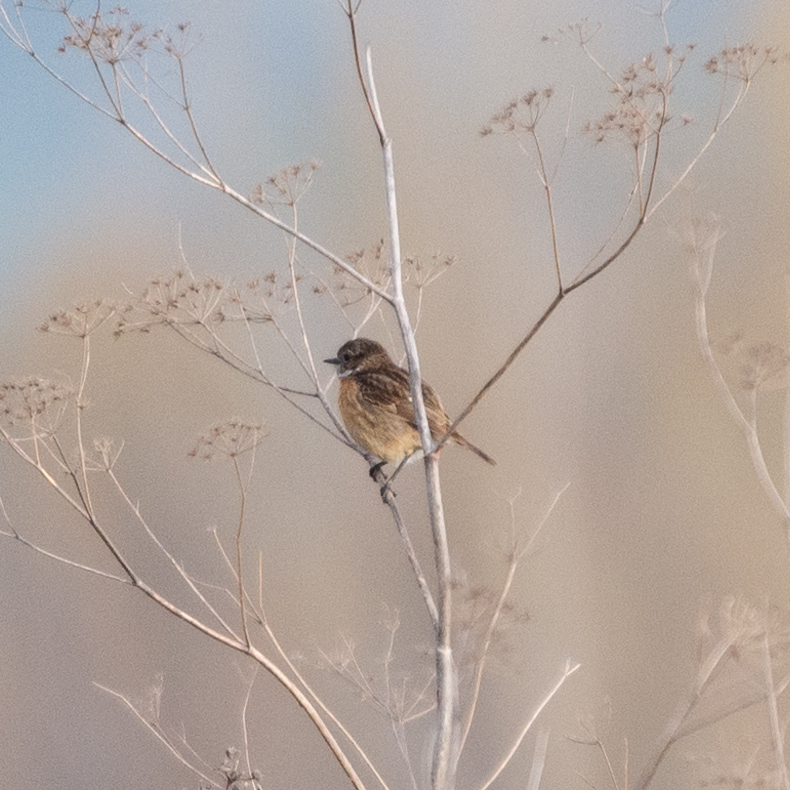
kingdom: Animalia
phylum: Chordata
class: Aves
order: Passeriformes
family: Muscicapidae
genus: Saxicola
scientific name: Saxicola rubicola
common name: European stonechat
